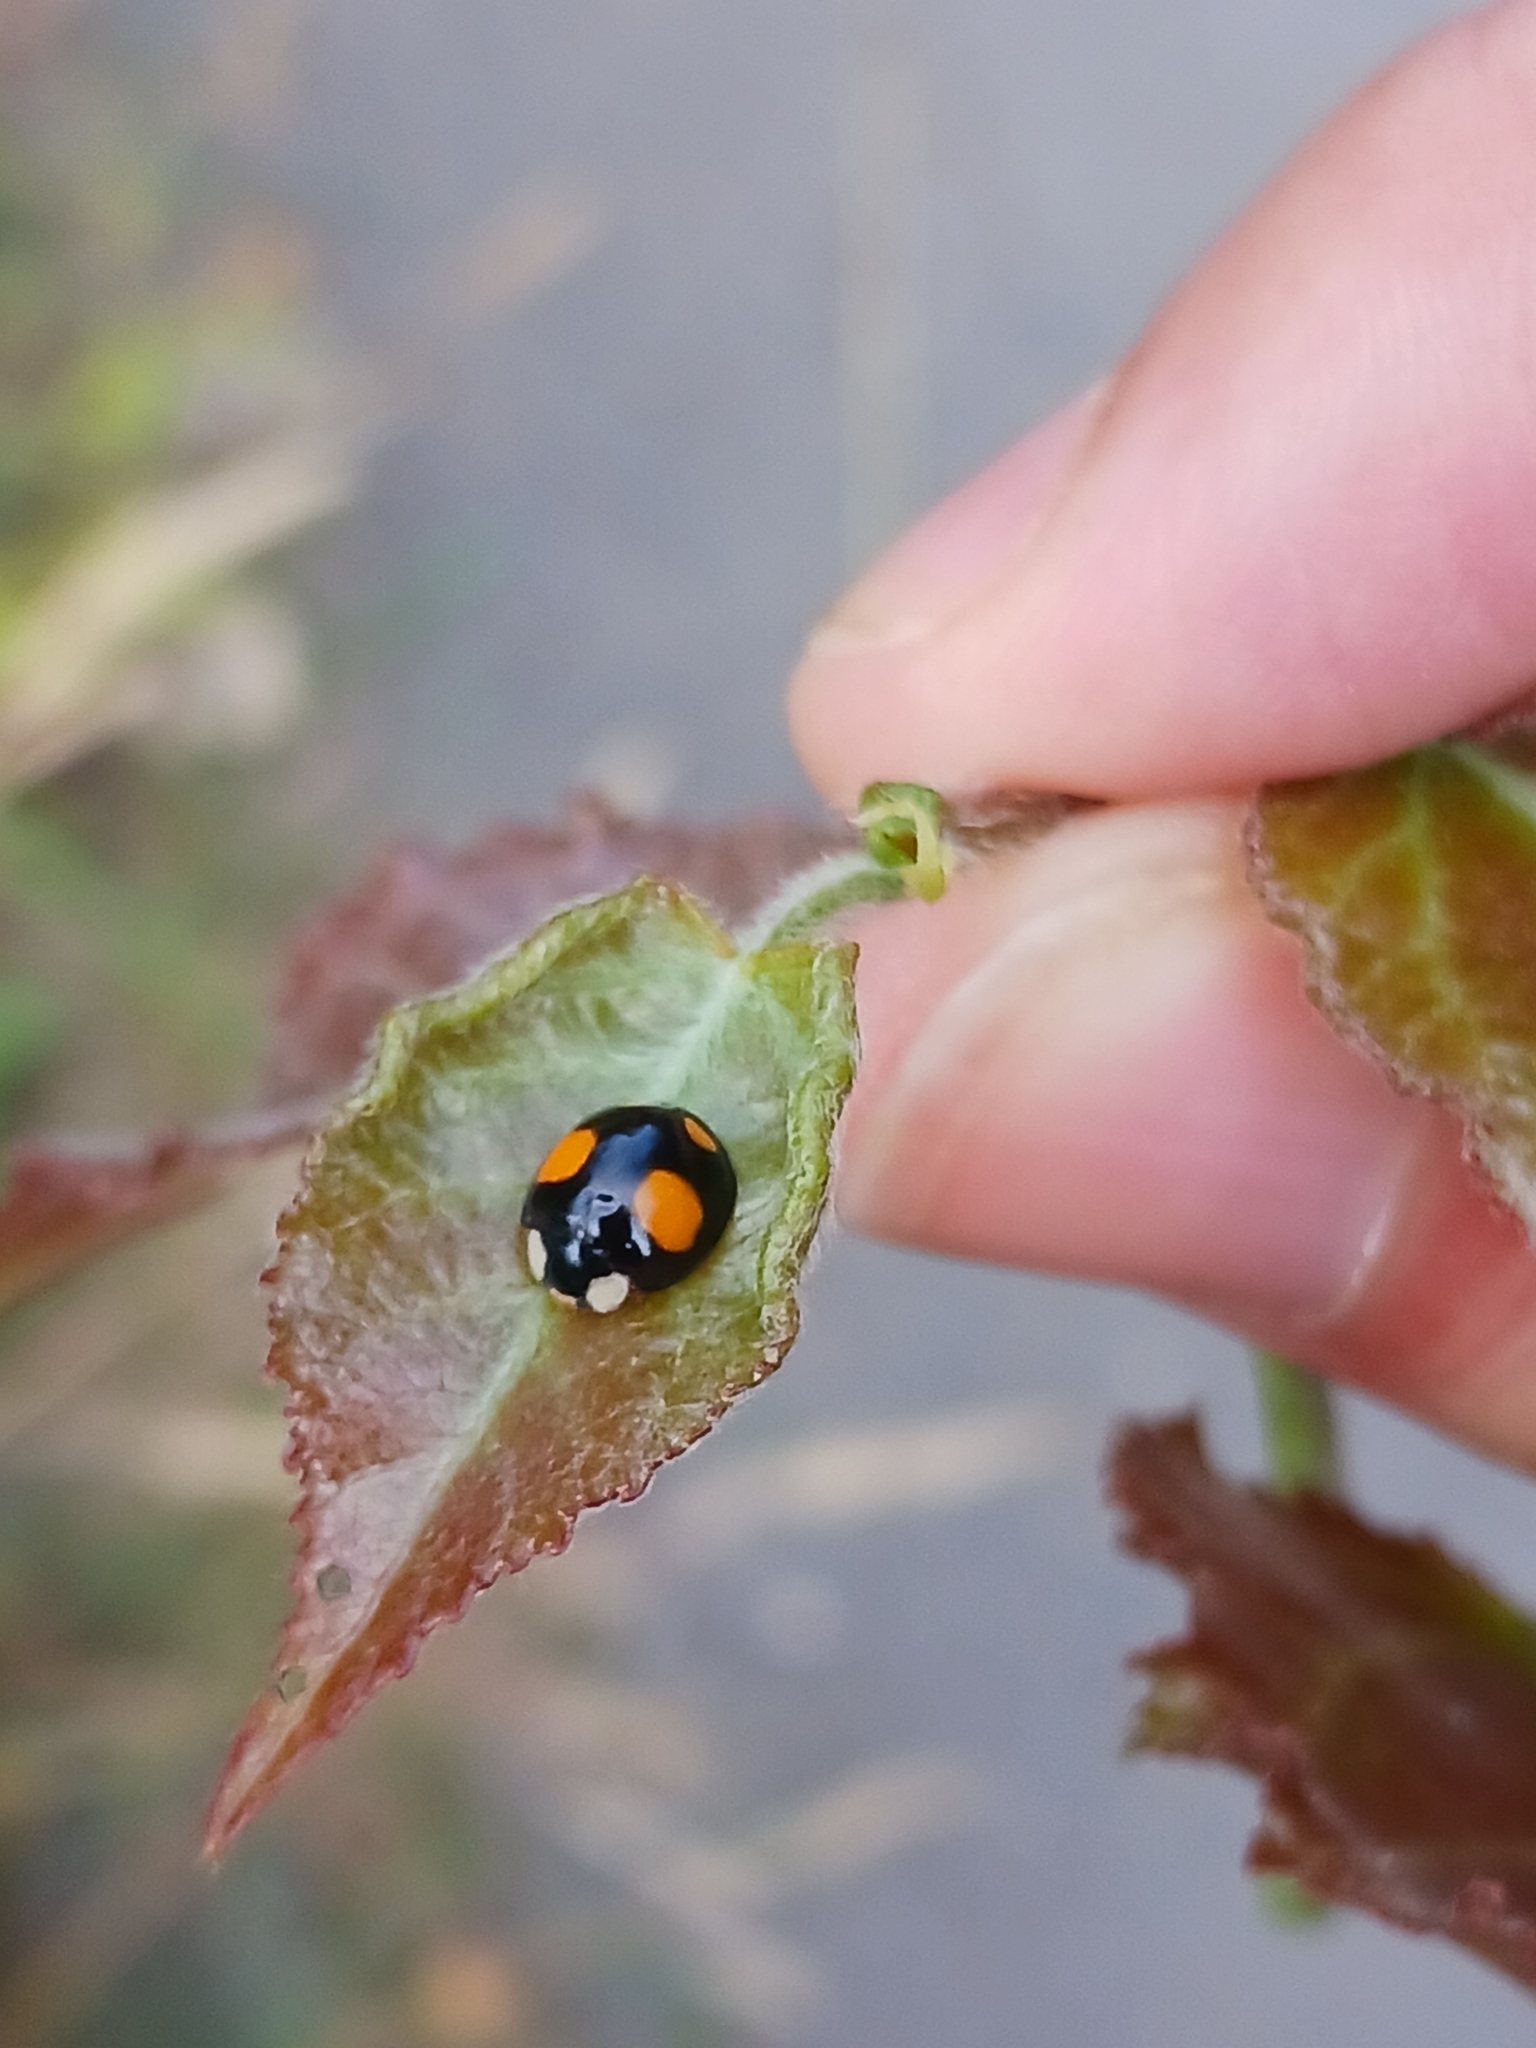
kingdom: Animalia
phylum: Arthropoda
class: Insecta
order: Coleoptera
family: Coccinellidae
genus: Harmonia
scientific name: Harmonia axyridis
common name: Harlequin ladybird
